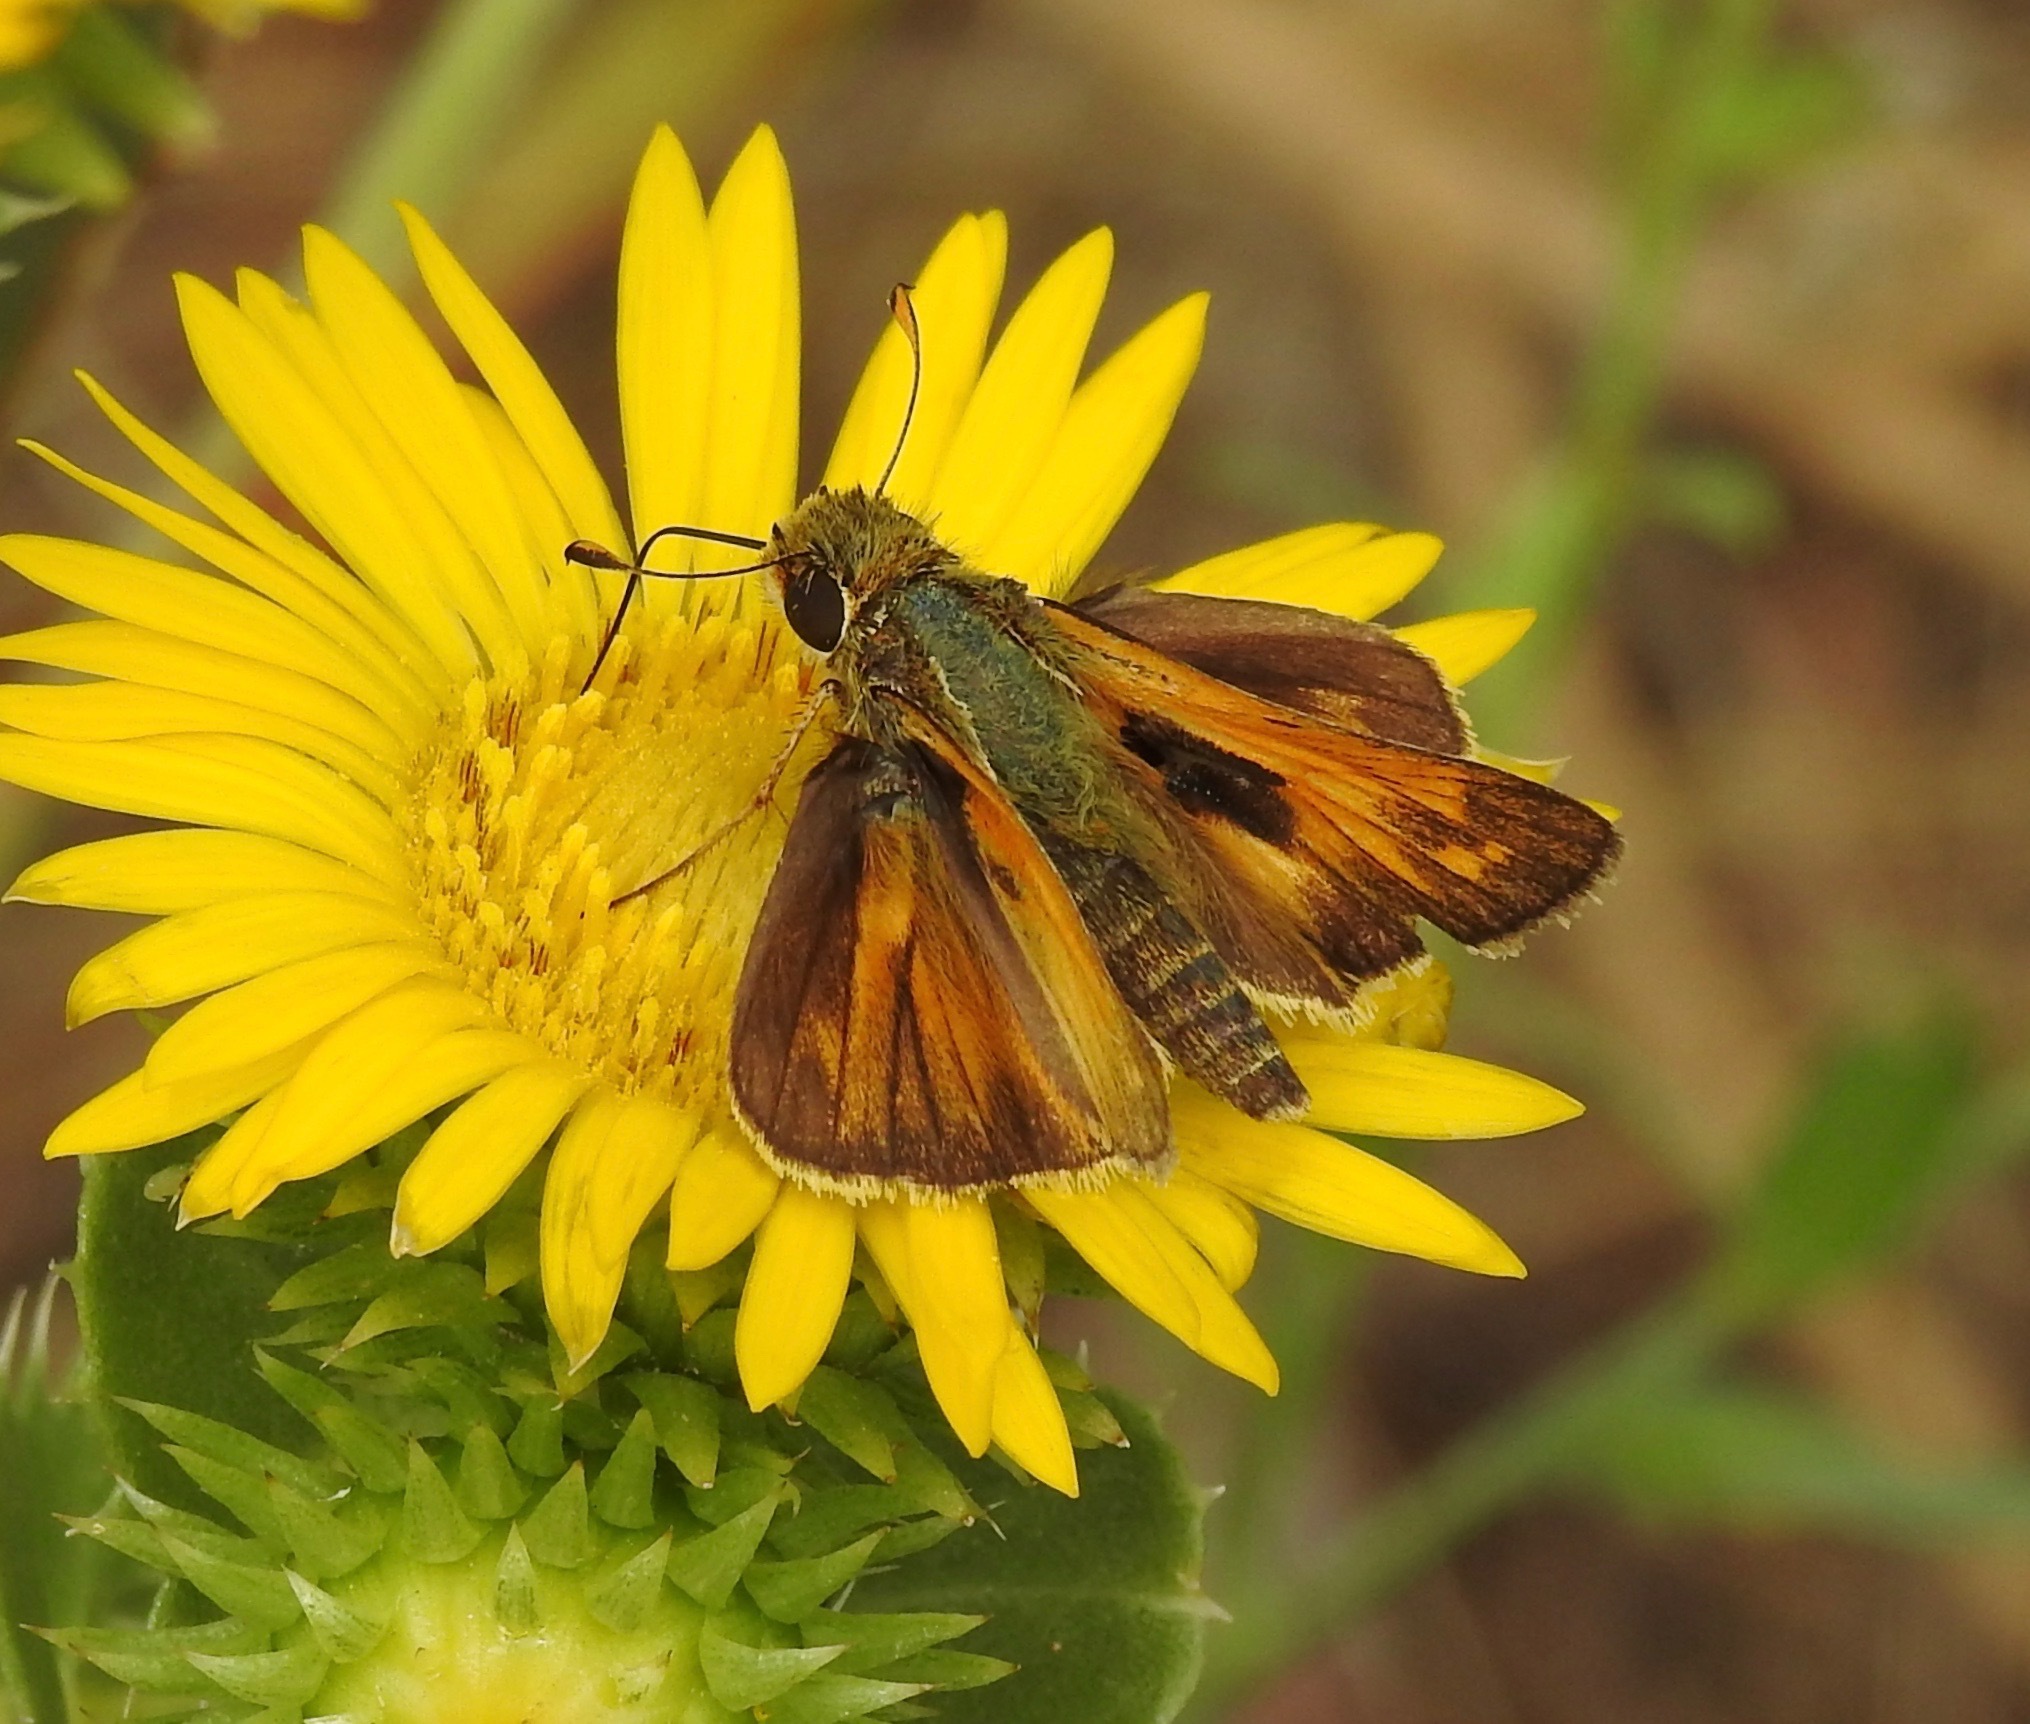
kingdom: Animalia
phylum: Arthropoda
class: Insecta
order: Lepidoptera
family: Hesperiidae
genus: Atalopedes
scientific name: Atalopedes
